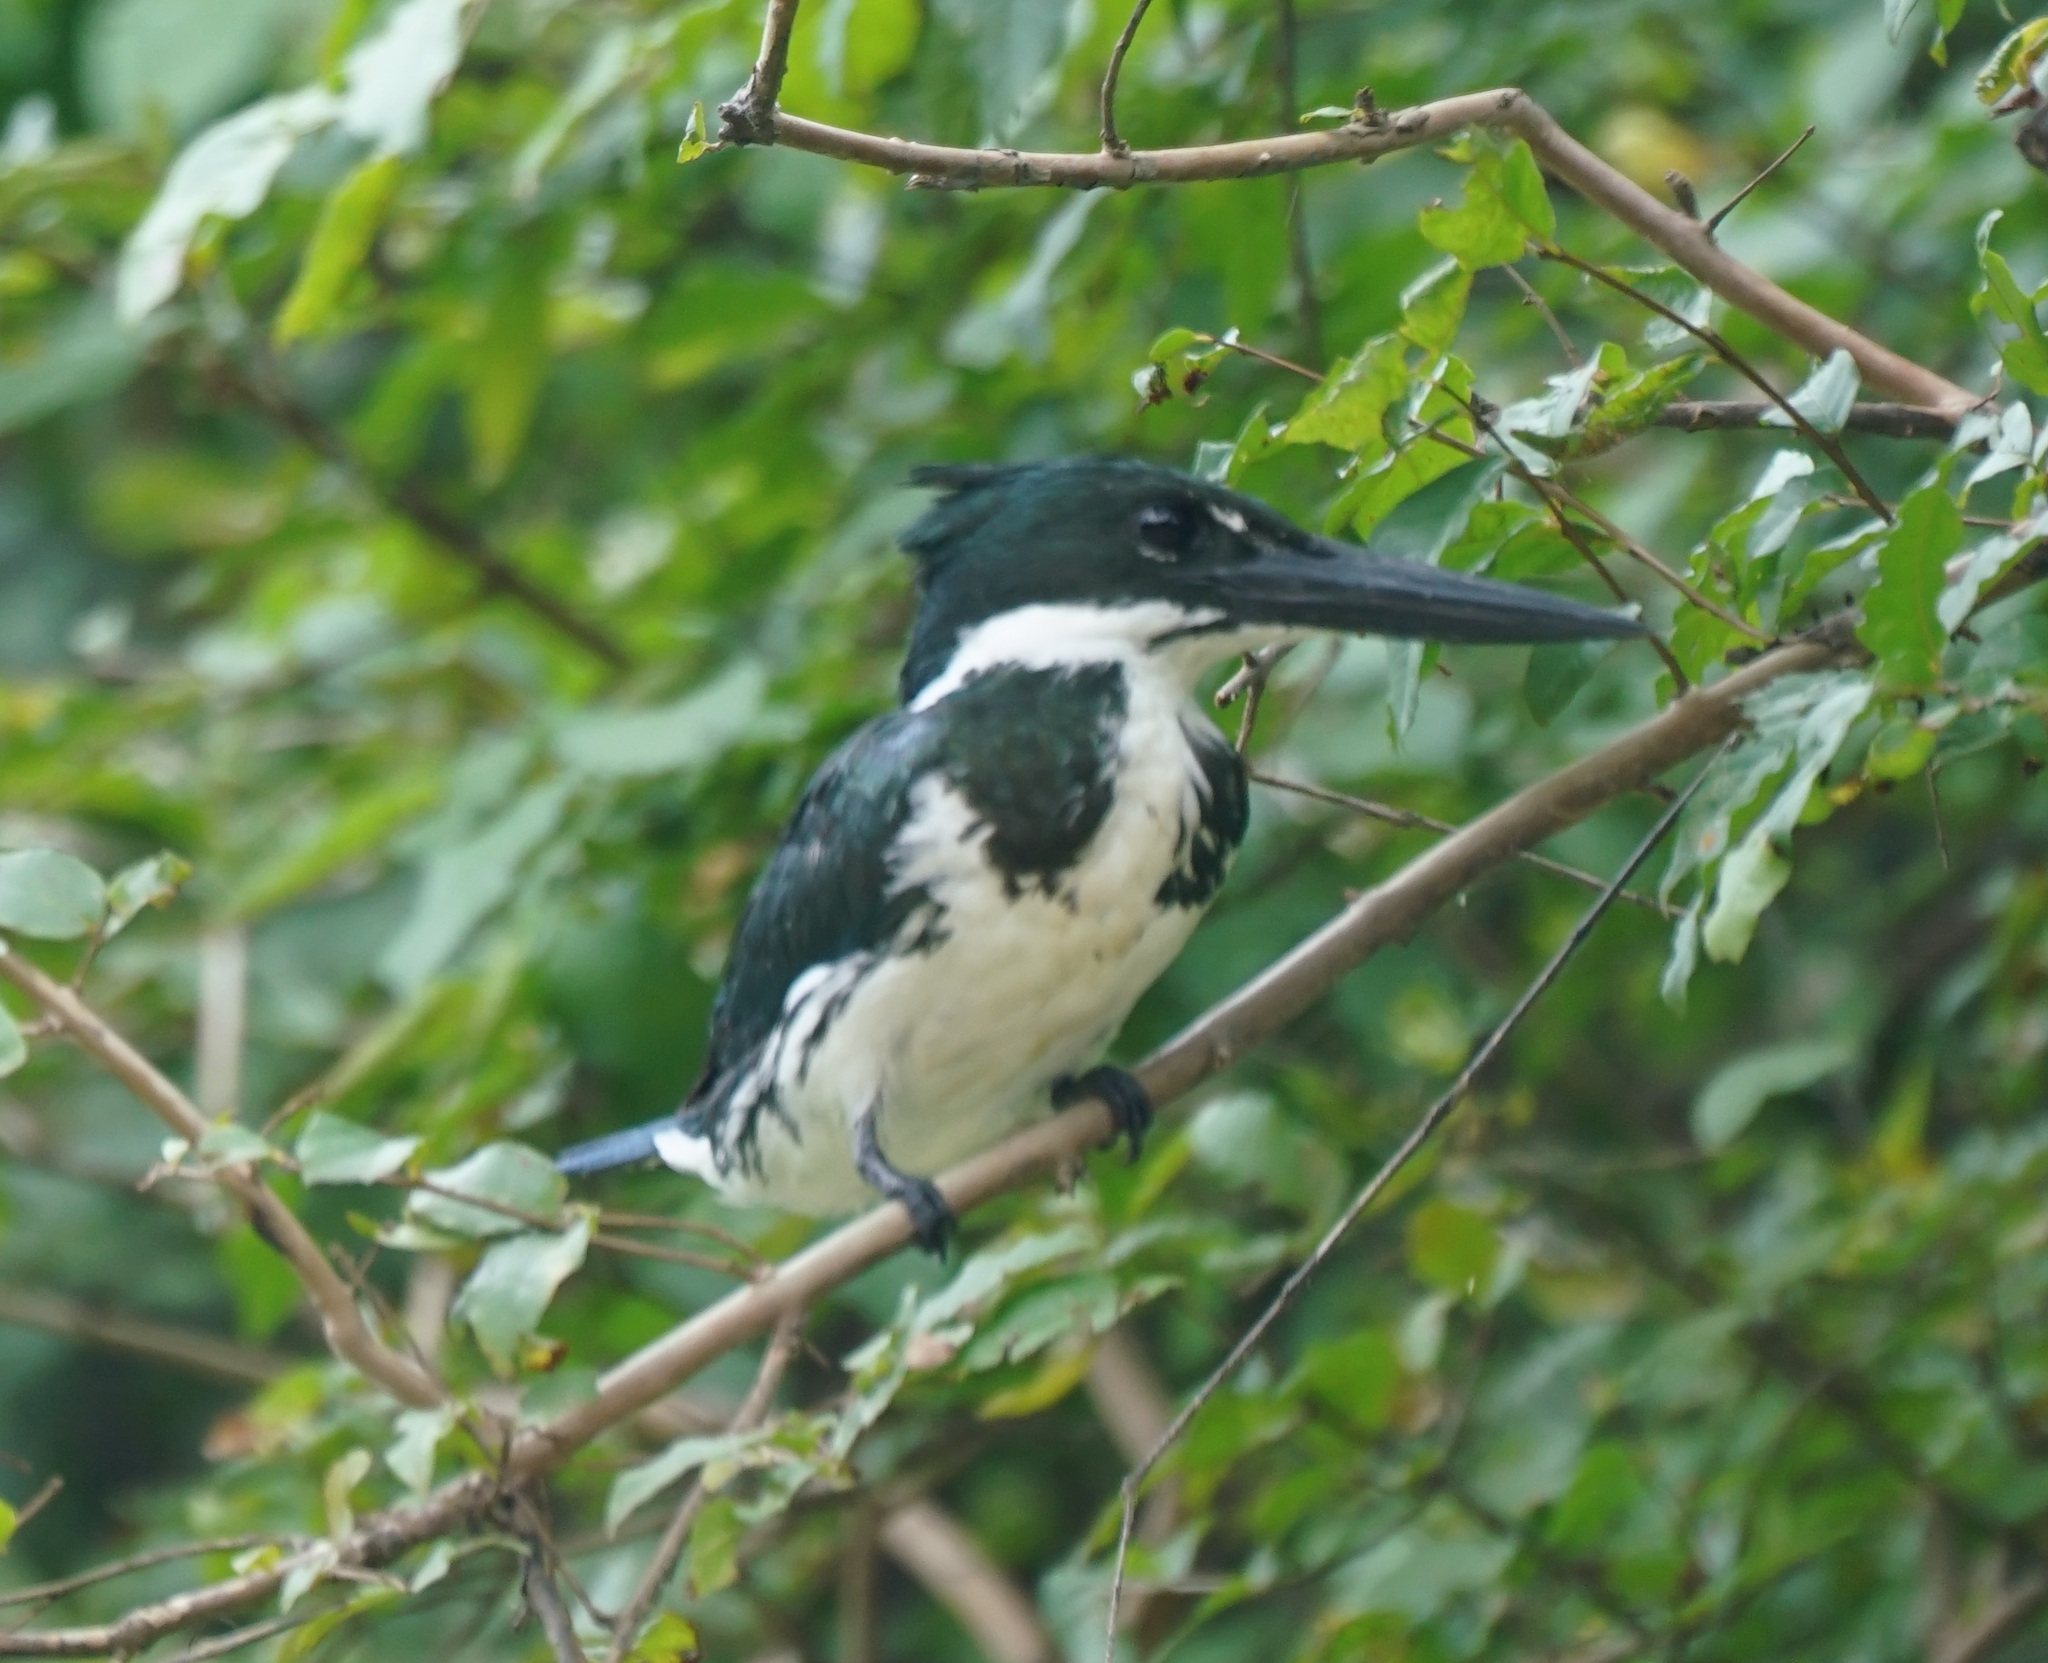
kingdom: Animalia
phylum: Chordata
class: Aves
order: Coraciiformes
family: Alcedinidae
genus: Chloroceryle
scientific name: Chloroceryle amazona
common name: Amazon kingfisher
